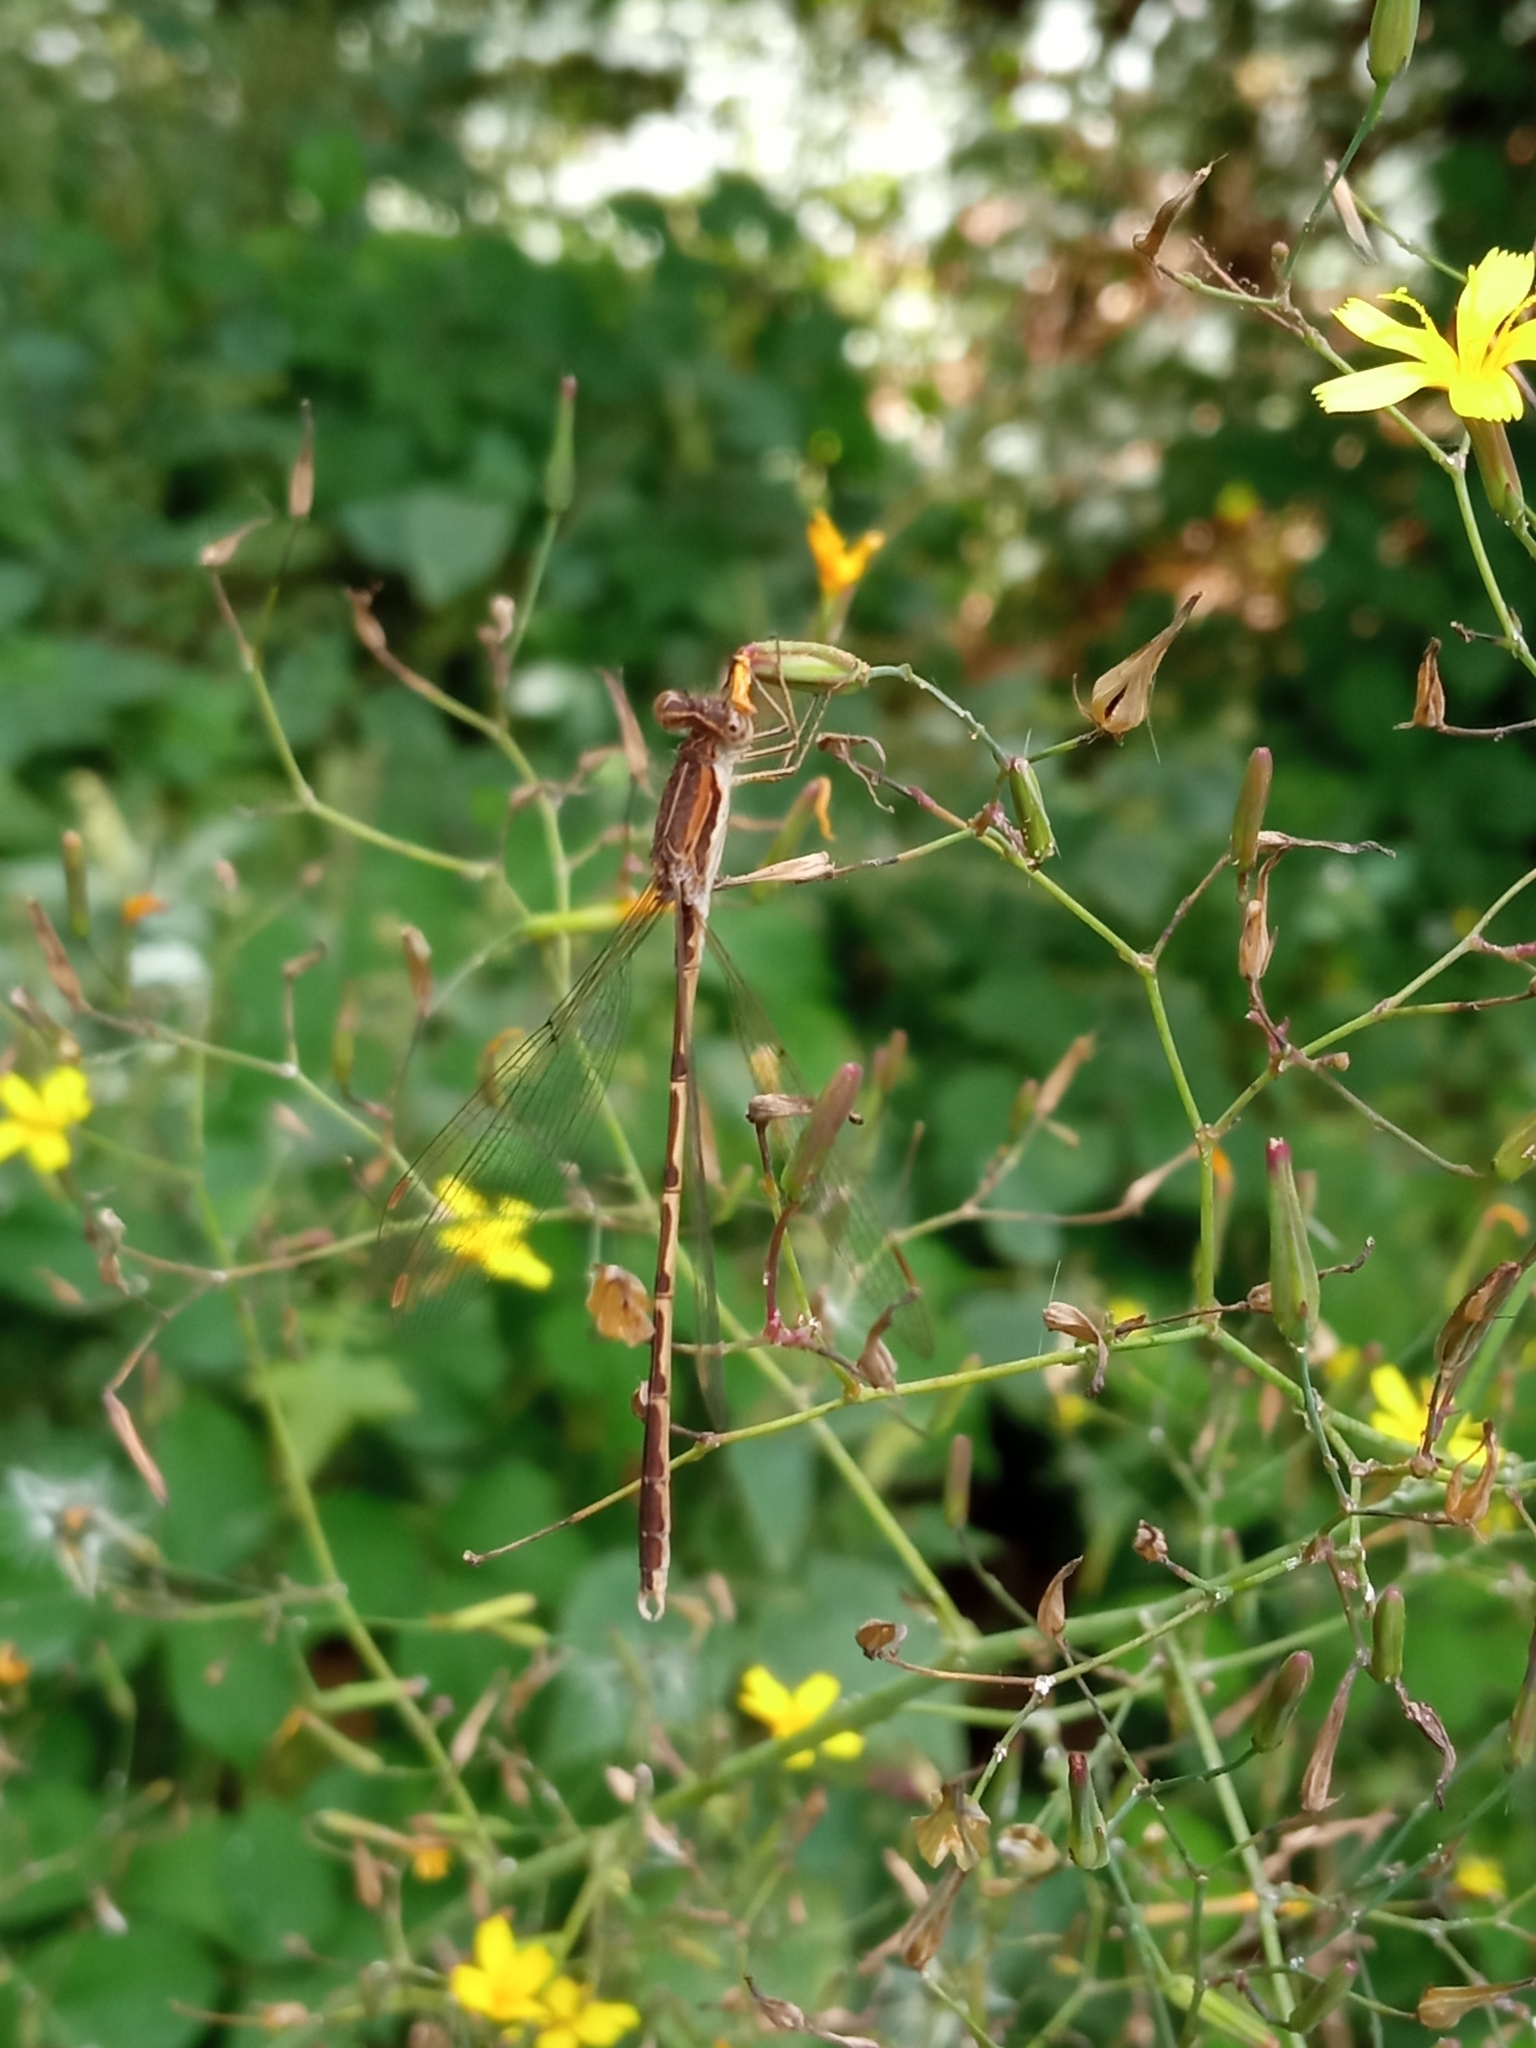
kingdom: Animalia
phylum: Arthropoda
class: Insecta
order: Odonata
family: Lestidae
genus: Sympecma
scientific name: Sympecma fusca
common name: Common winter damsel
